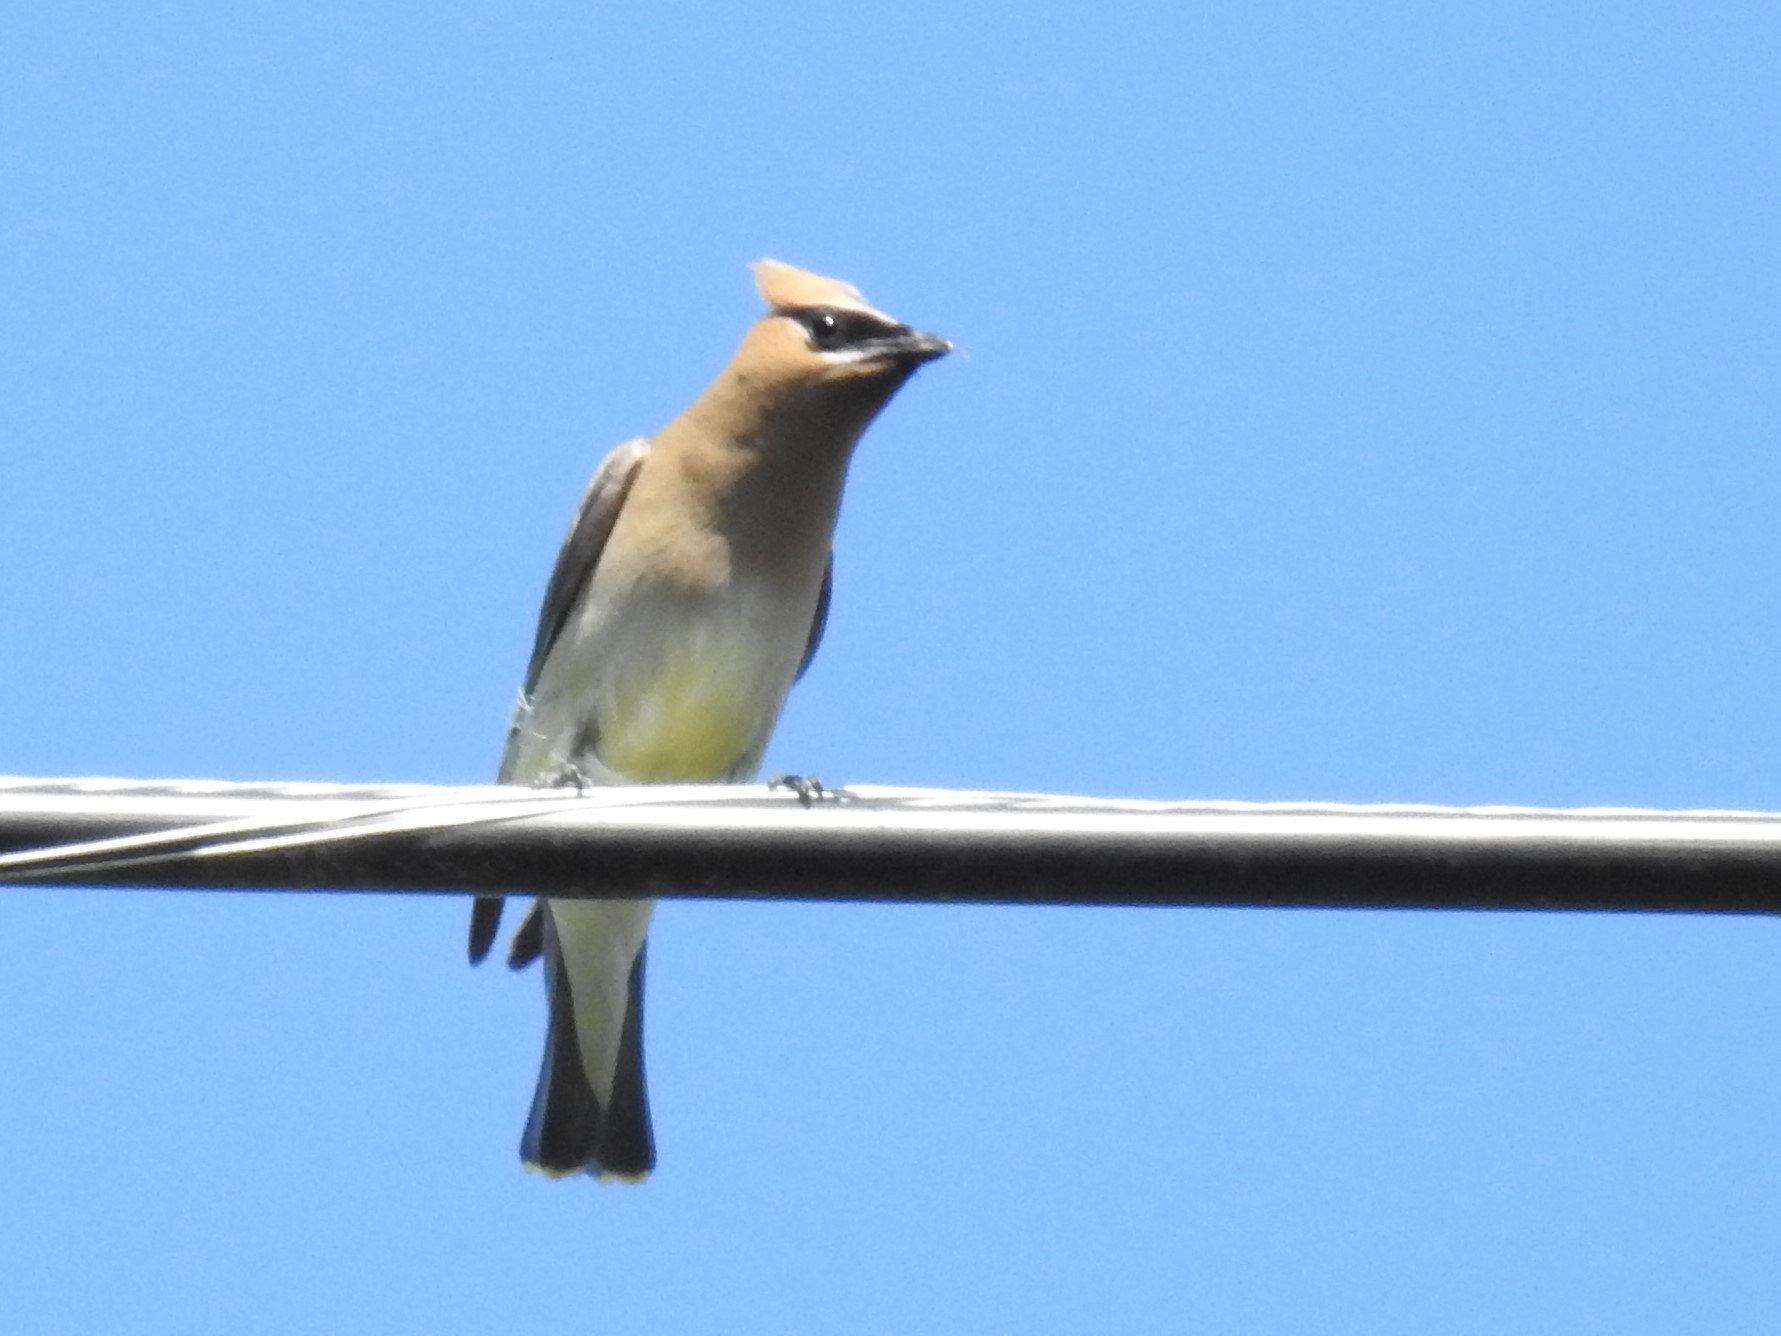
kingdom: Animalia
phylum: Chordata
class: Aves
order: Passeriformes
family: Bombycillidae
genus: Bombycilla
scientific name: Bombycilla cedrorum
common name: Cedar waxwing
